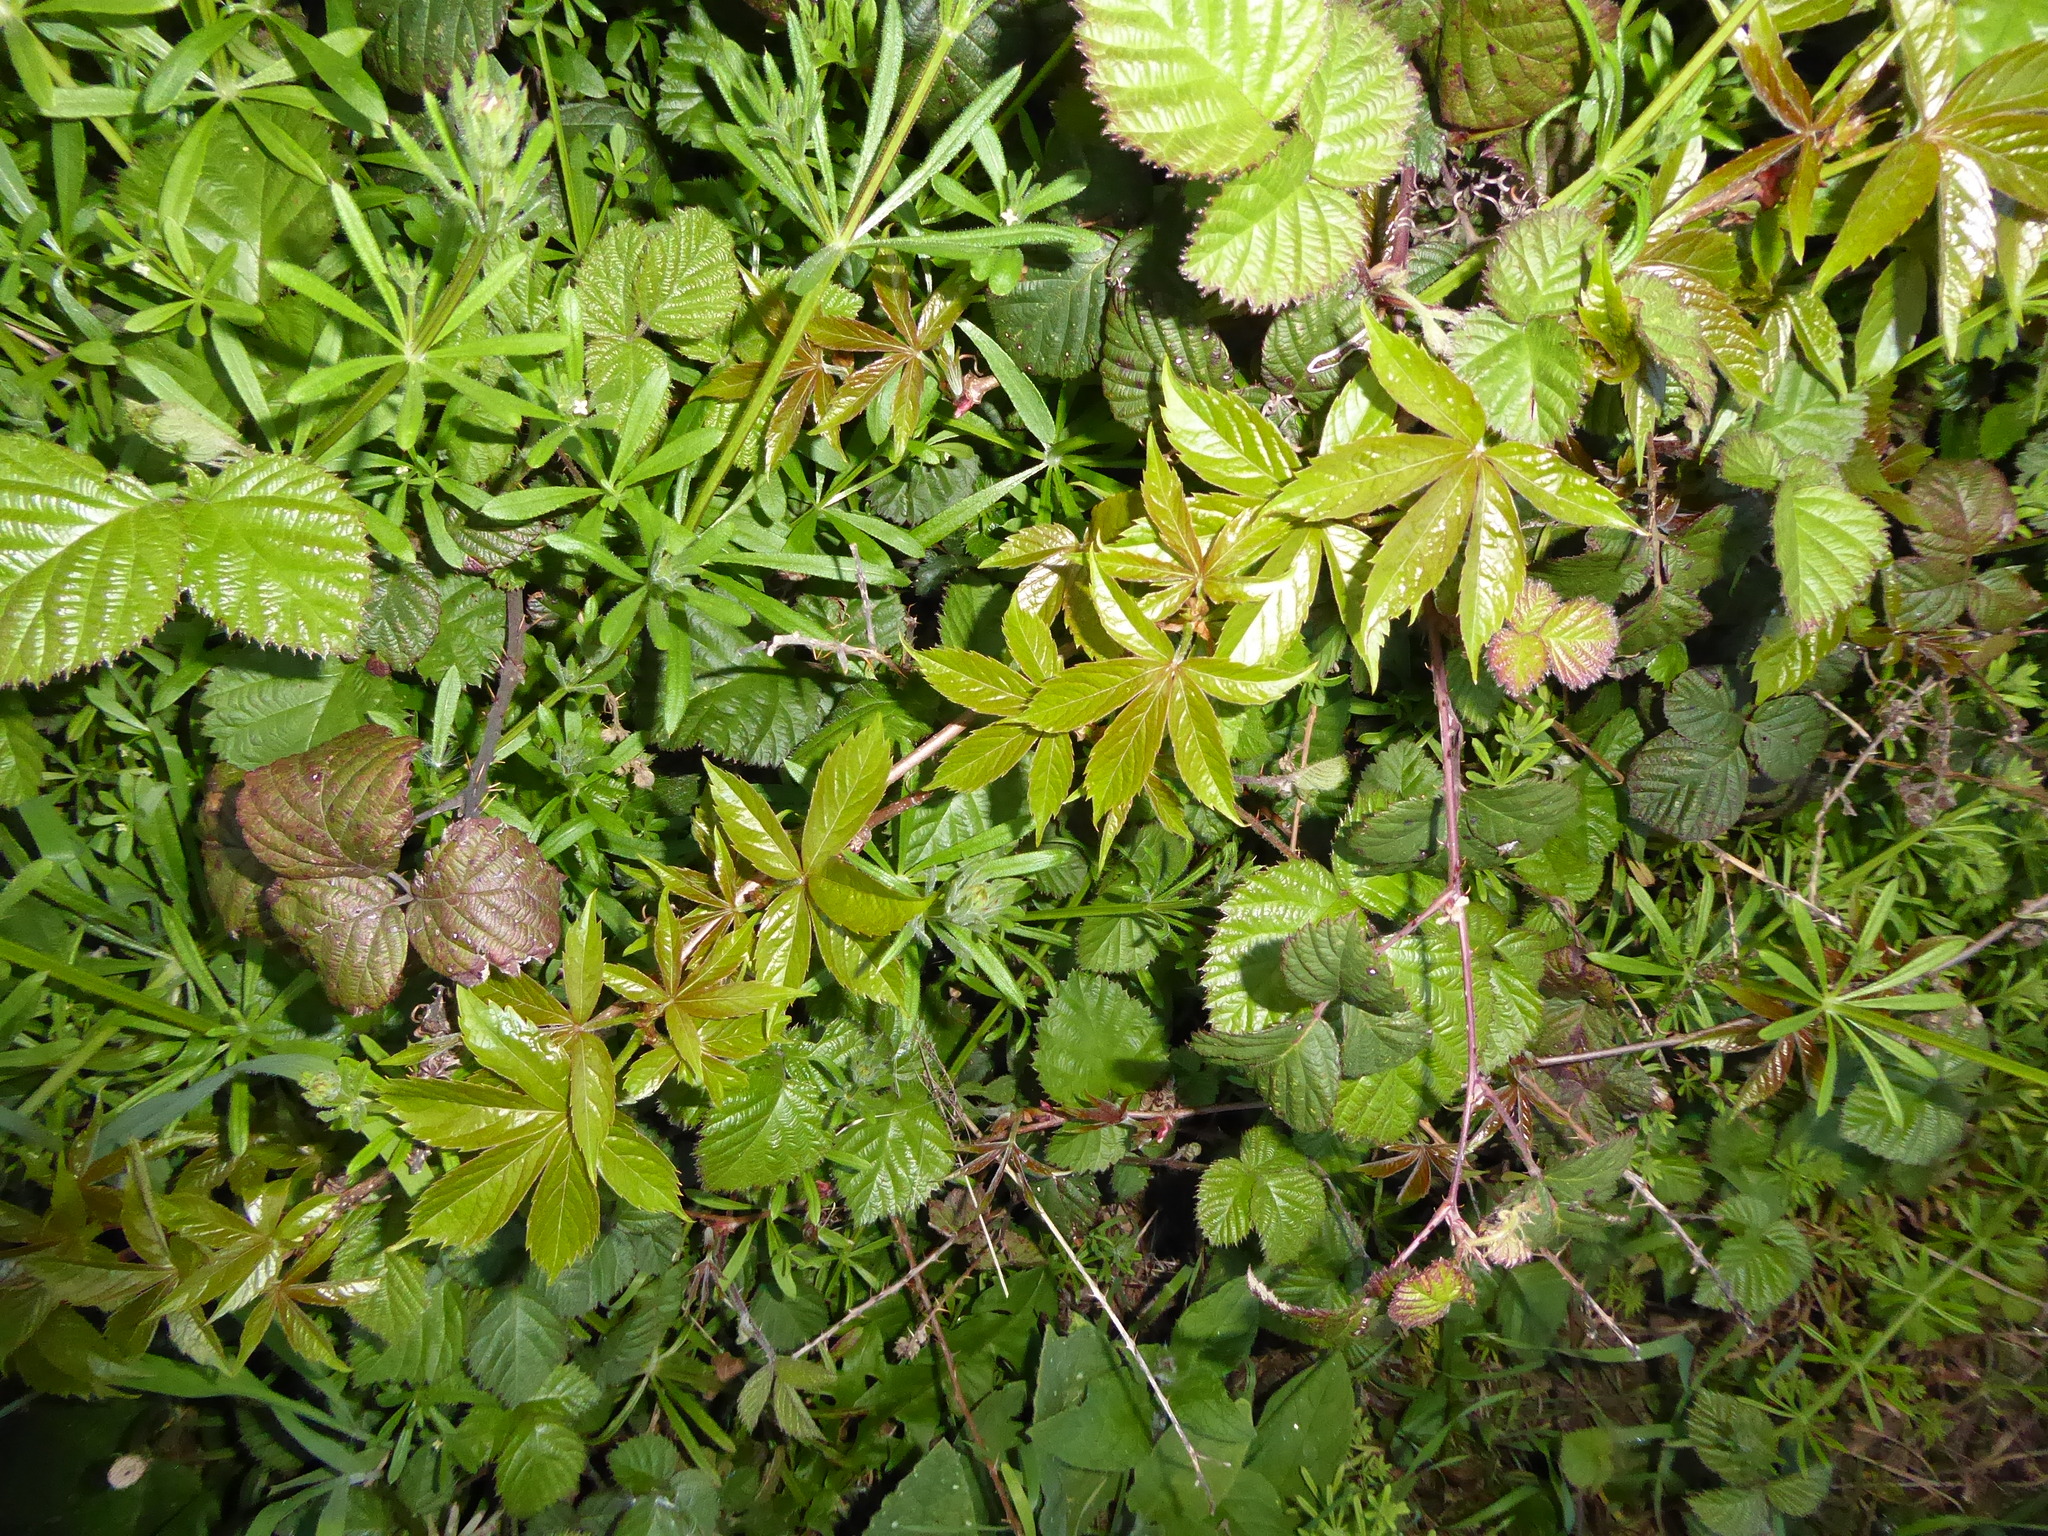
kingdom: Plantae
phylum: Tracheophyta
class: Magnoliopsida
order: Vitales
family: Vitaceae
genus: Parthenocissus
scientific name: Parthenocissus quinquefolia
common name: Virginia-creeper
